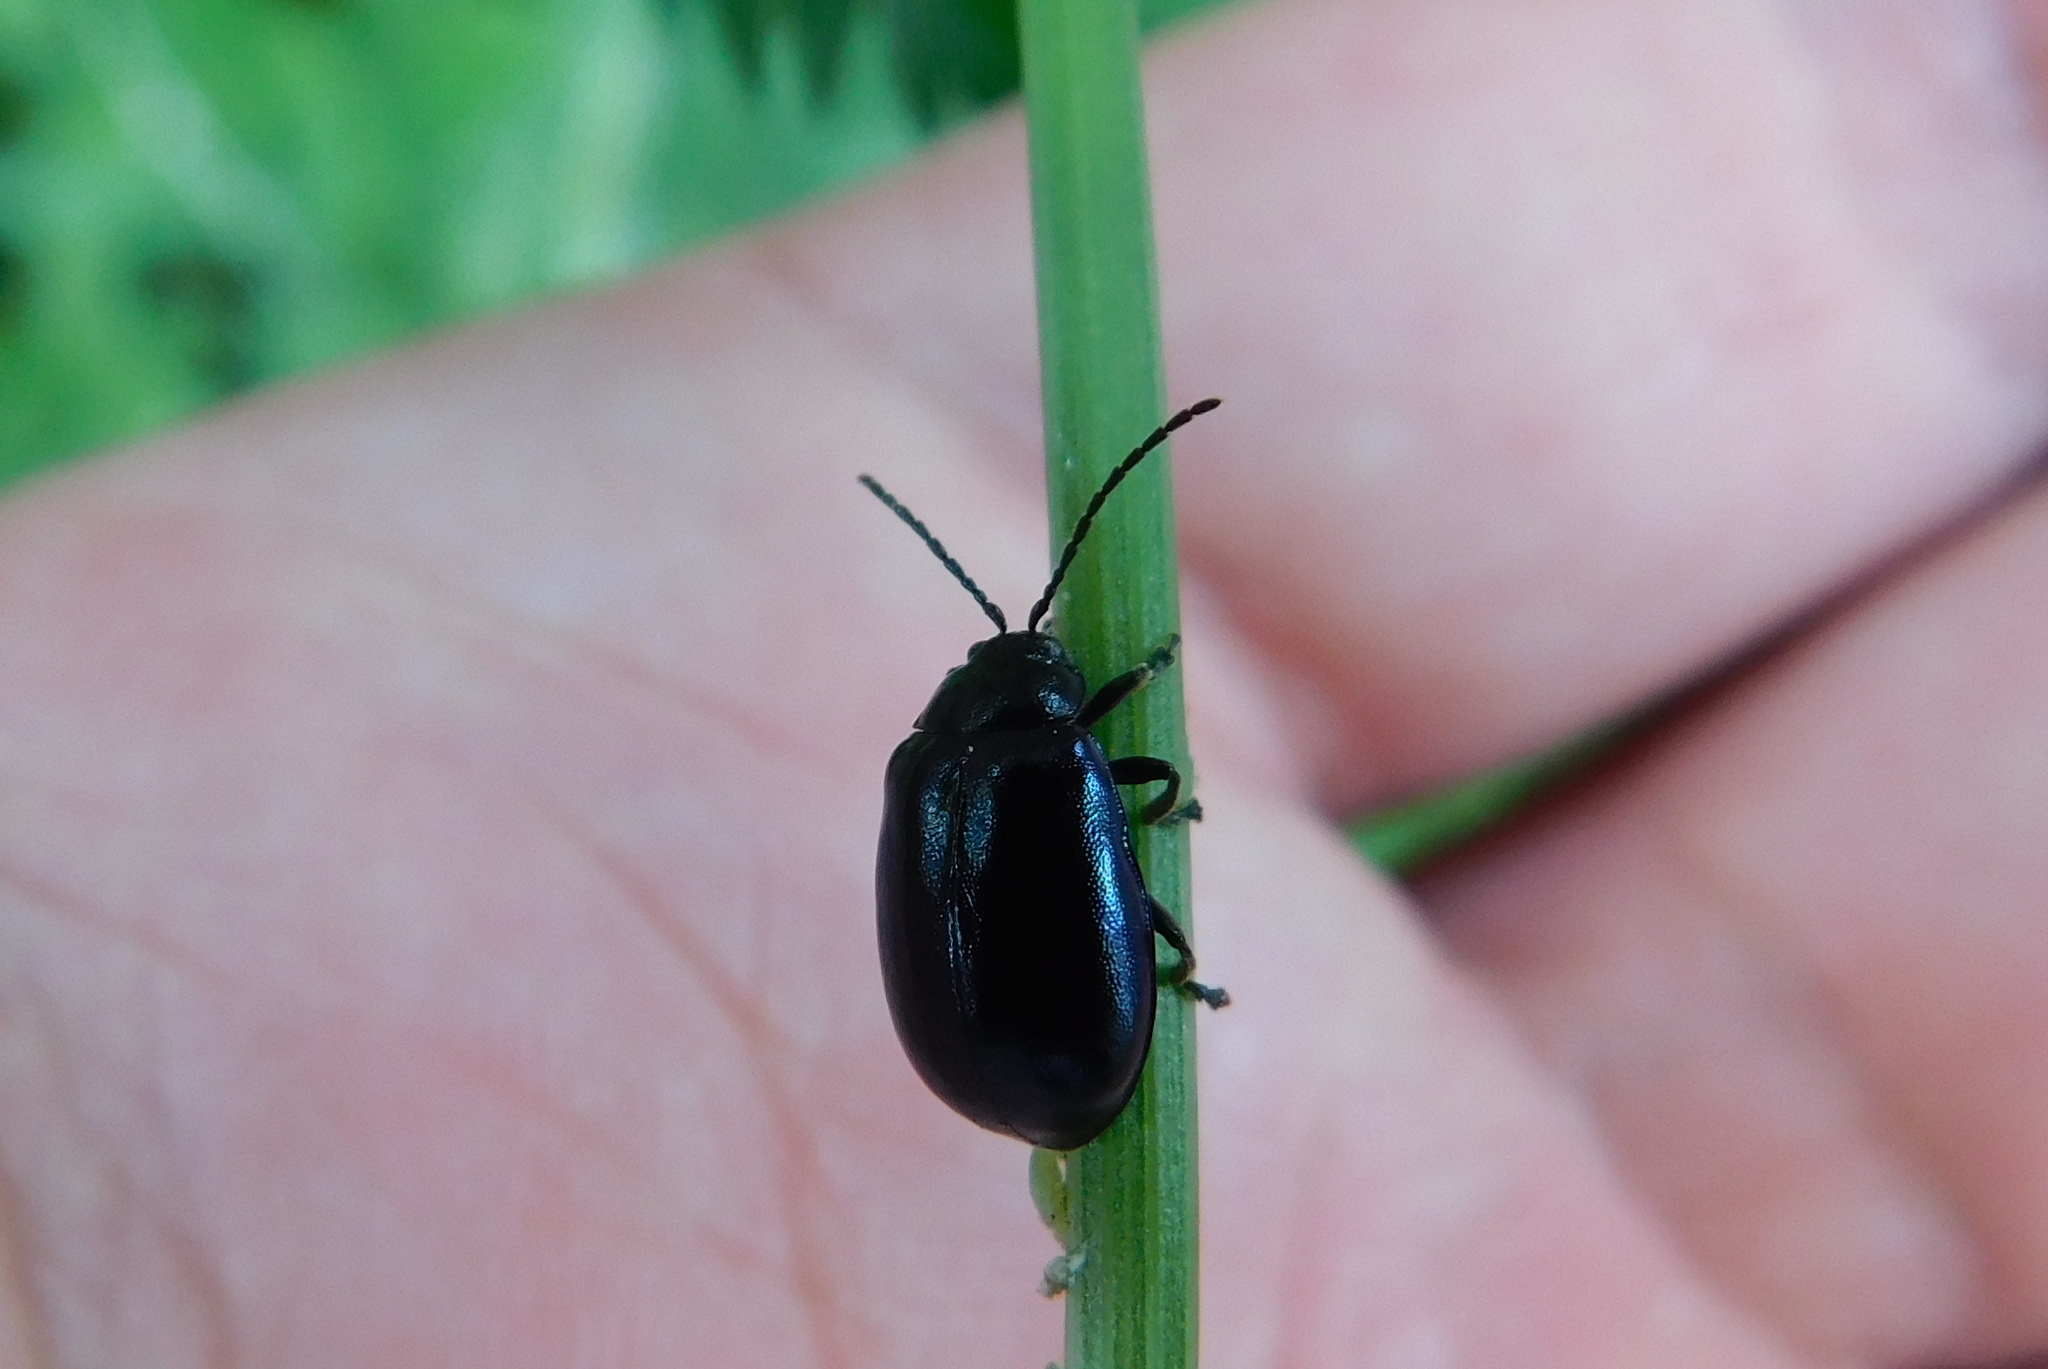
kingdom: Animalia
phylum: Arthropoda
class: Insecta
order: Coleoptera
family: Chrysomelidae
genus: Agelastica
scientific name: Agelastica alni
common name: Alder leaf beetle
